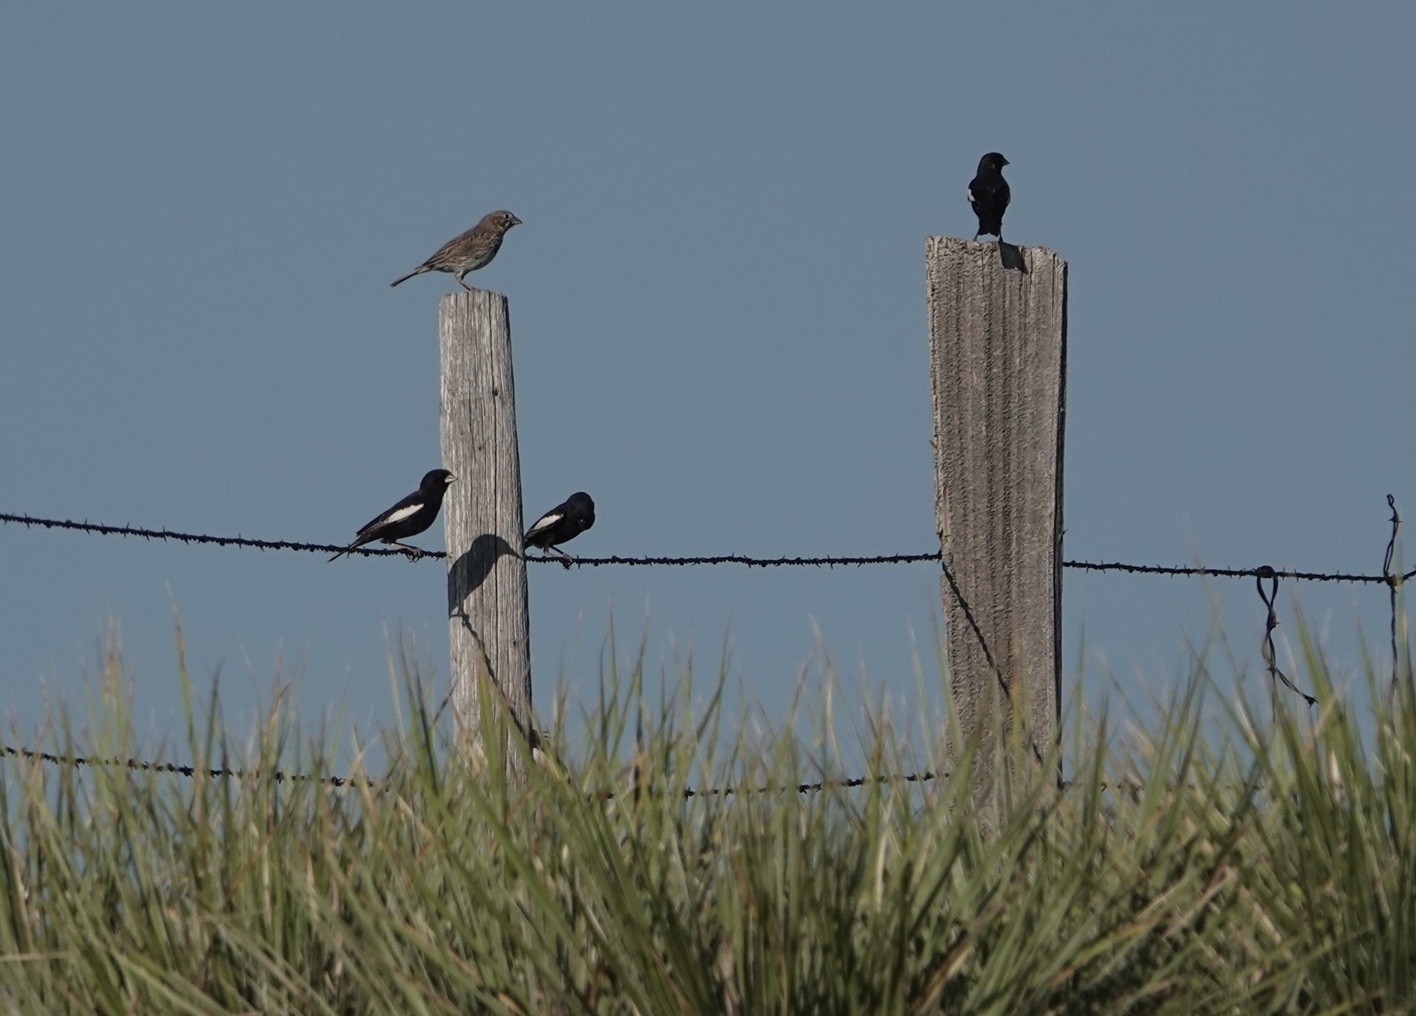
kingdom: Animalia
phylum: Chordata
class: Aves
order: Passeriformes
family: Passerellidae
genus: Calamospiza
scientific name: Calamospiza melanocorys
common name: Lark bunting
